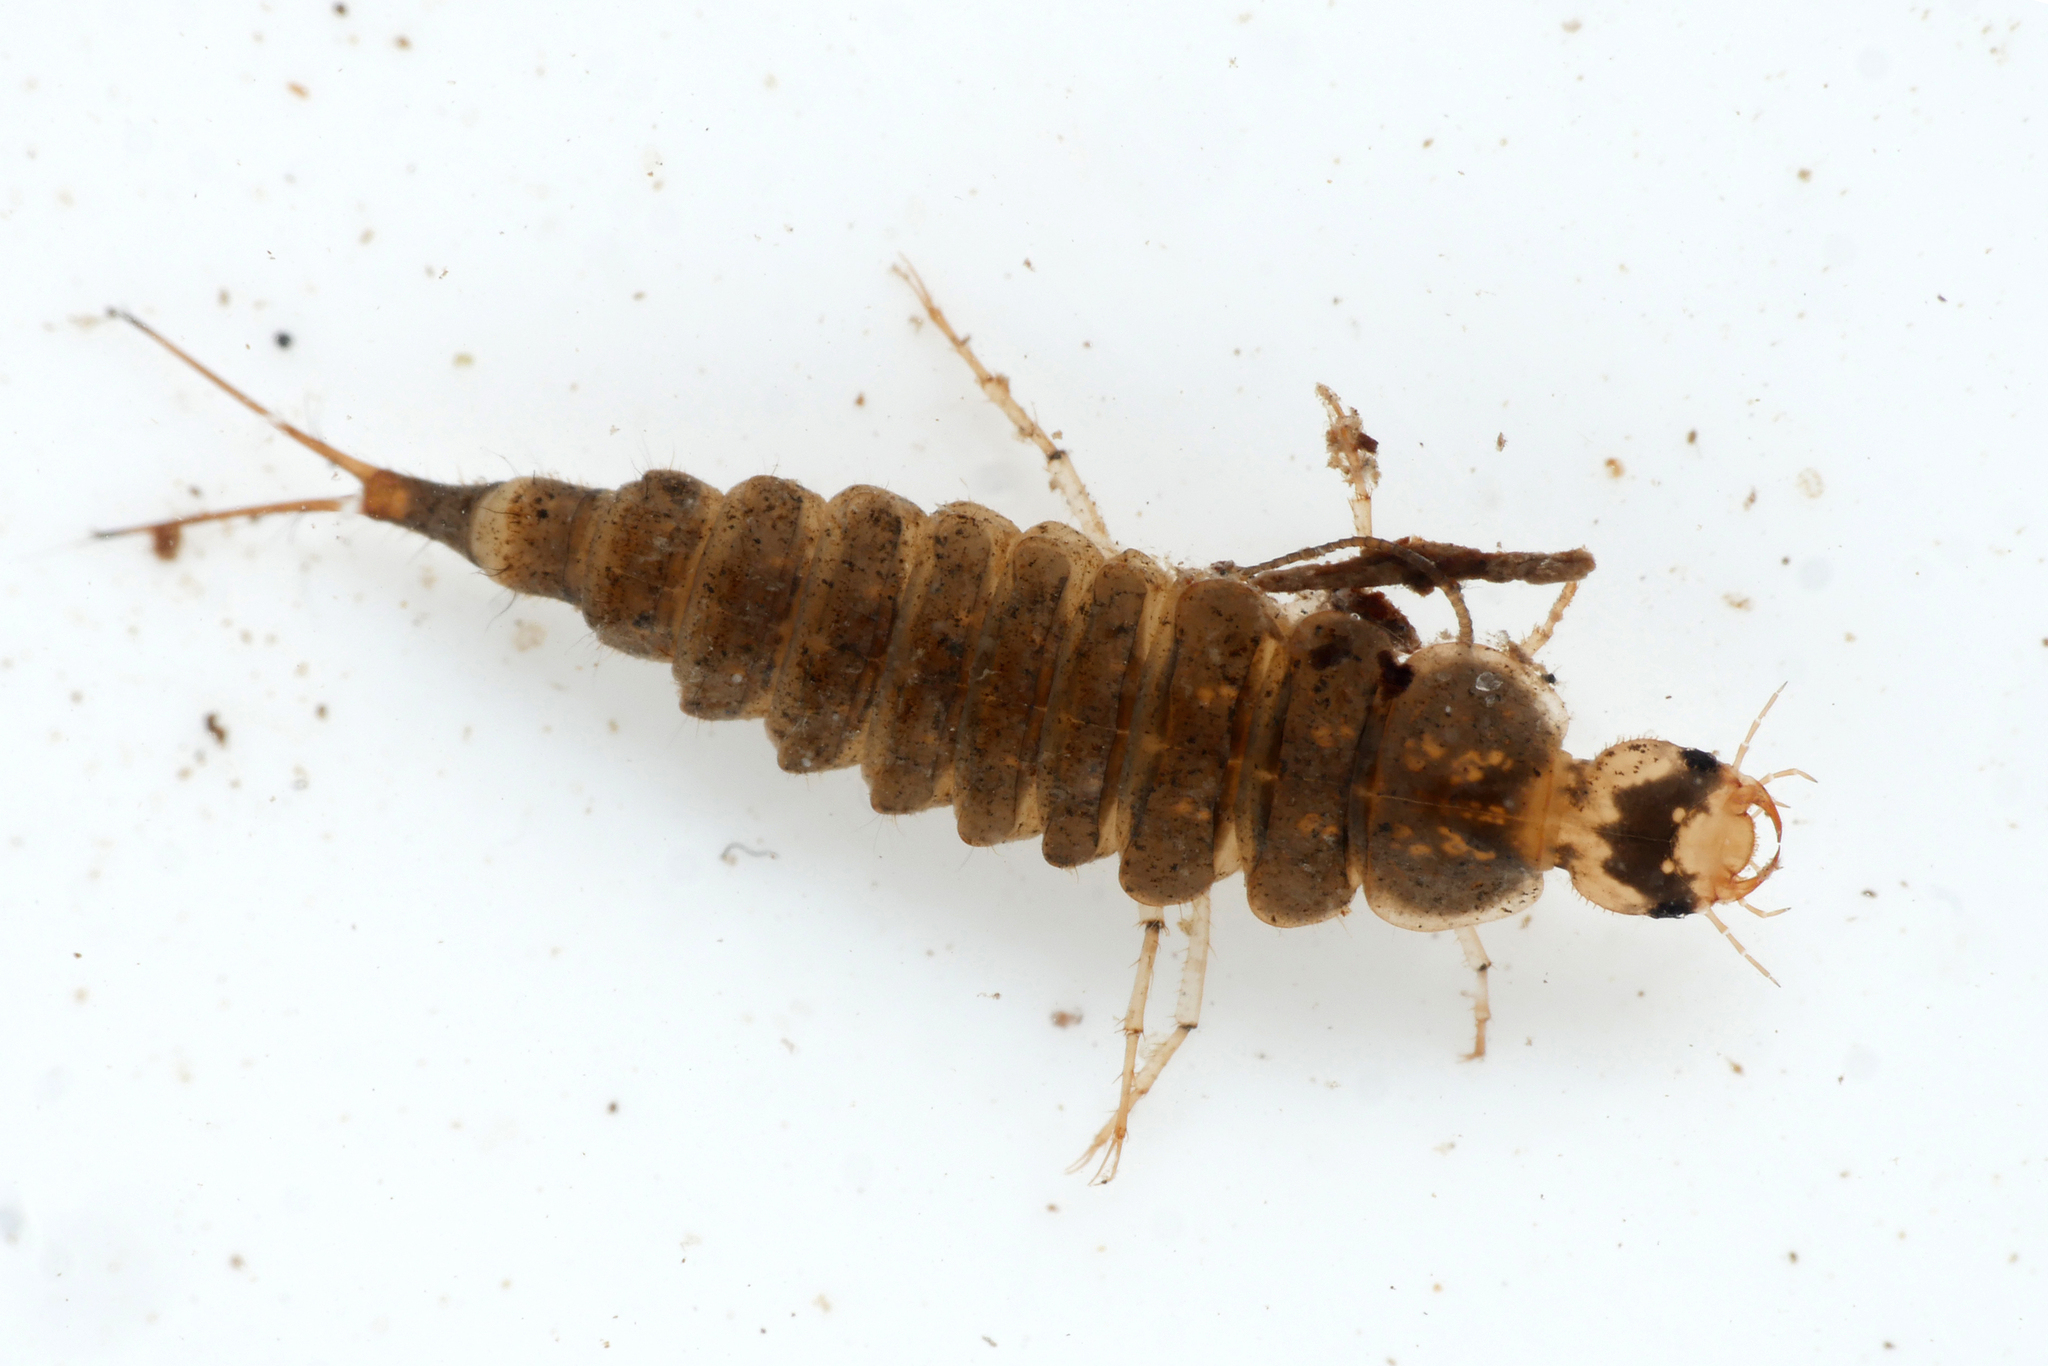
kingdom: Animalia
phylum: Arthropoda
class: Insecta
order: Coleoptera
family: Dytiscidae
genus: Platambus
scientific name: Platambus maculatus
